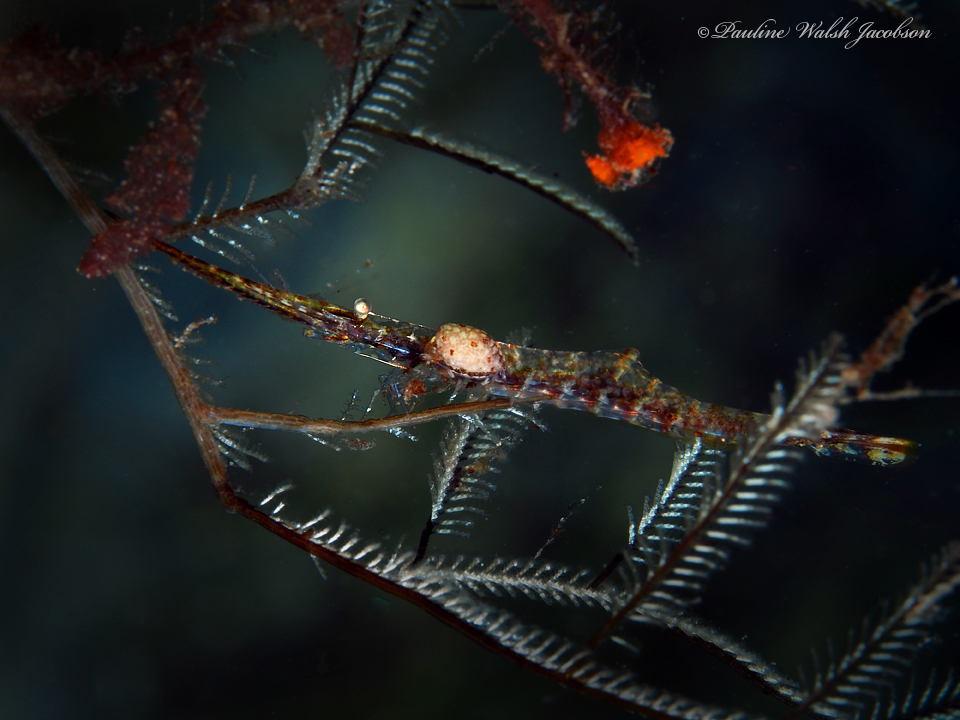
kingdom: Animalia
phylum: Arthropoda
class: Malacostraca
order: Decapoda
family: Hippolytidae
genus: Tozeuma
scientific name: Tozeuma serratum
